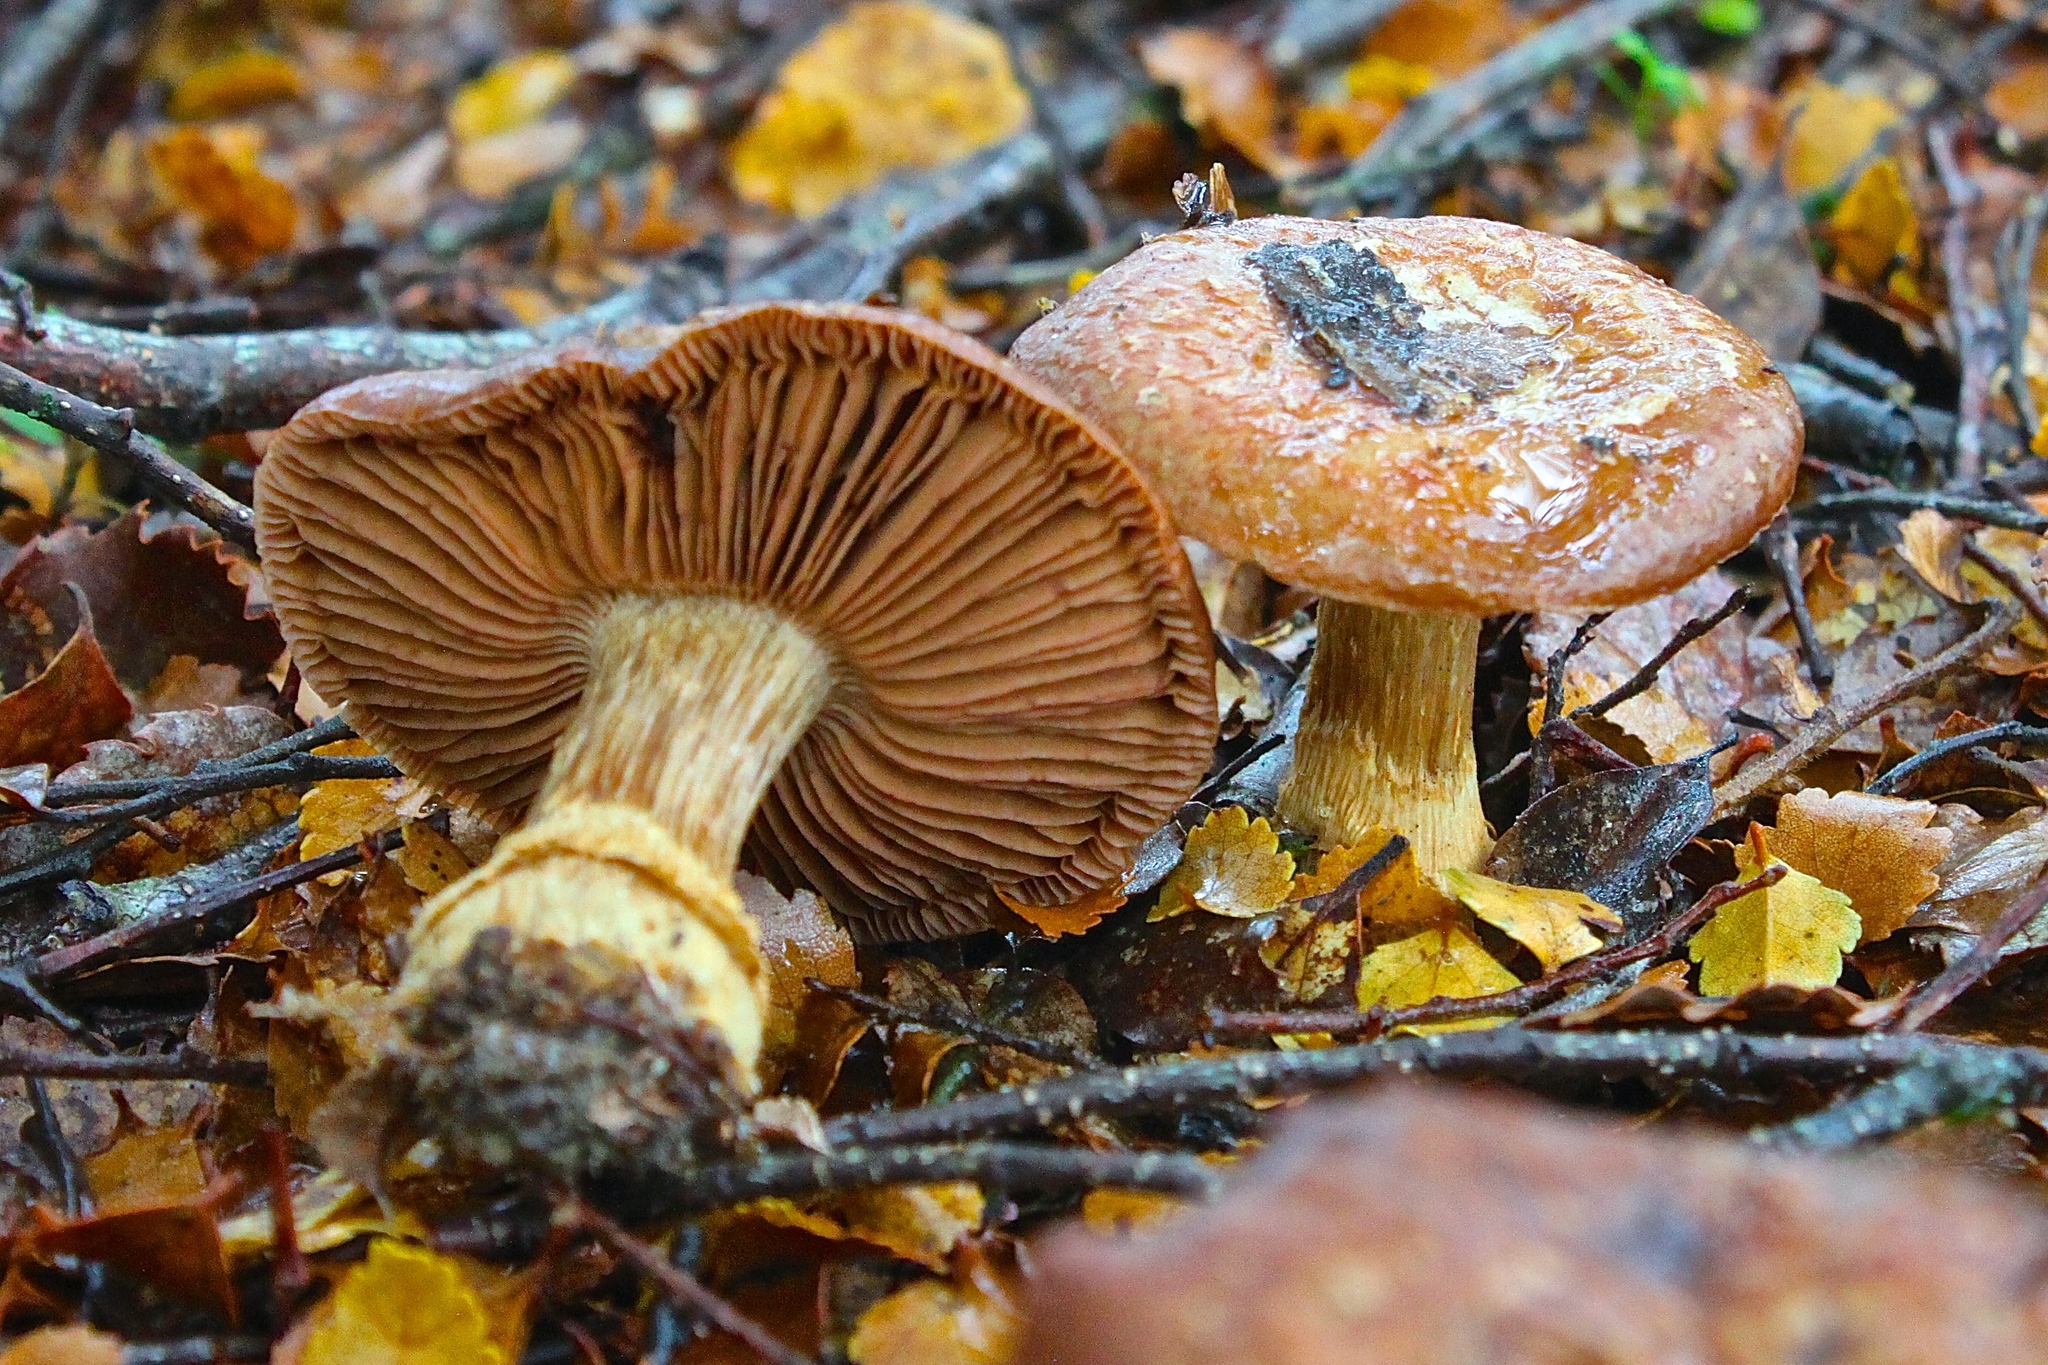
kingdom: Fungi
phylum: Basidiomycota
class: Agaricomycetes
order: Agaricales
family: Cortinariaceae
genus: Cortinarius
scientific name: Cortinarius subcastanellus
